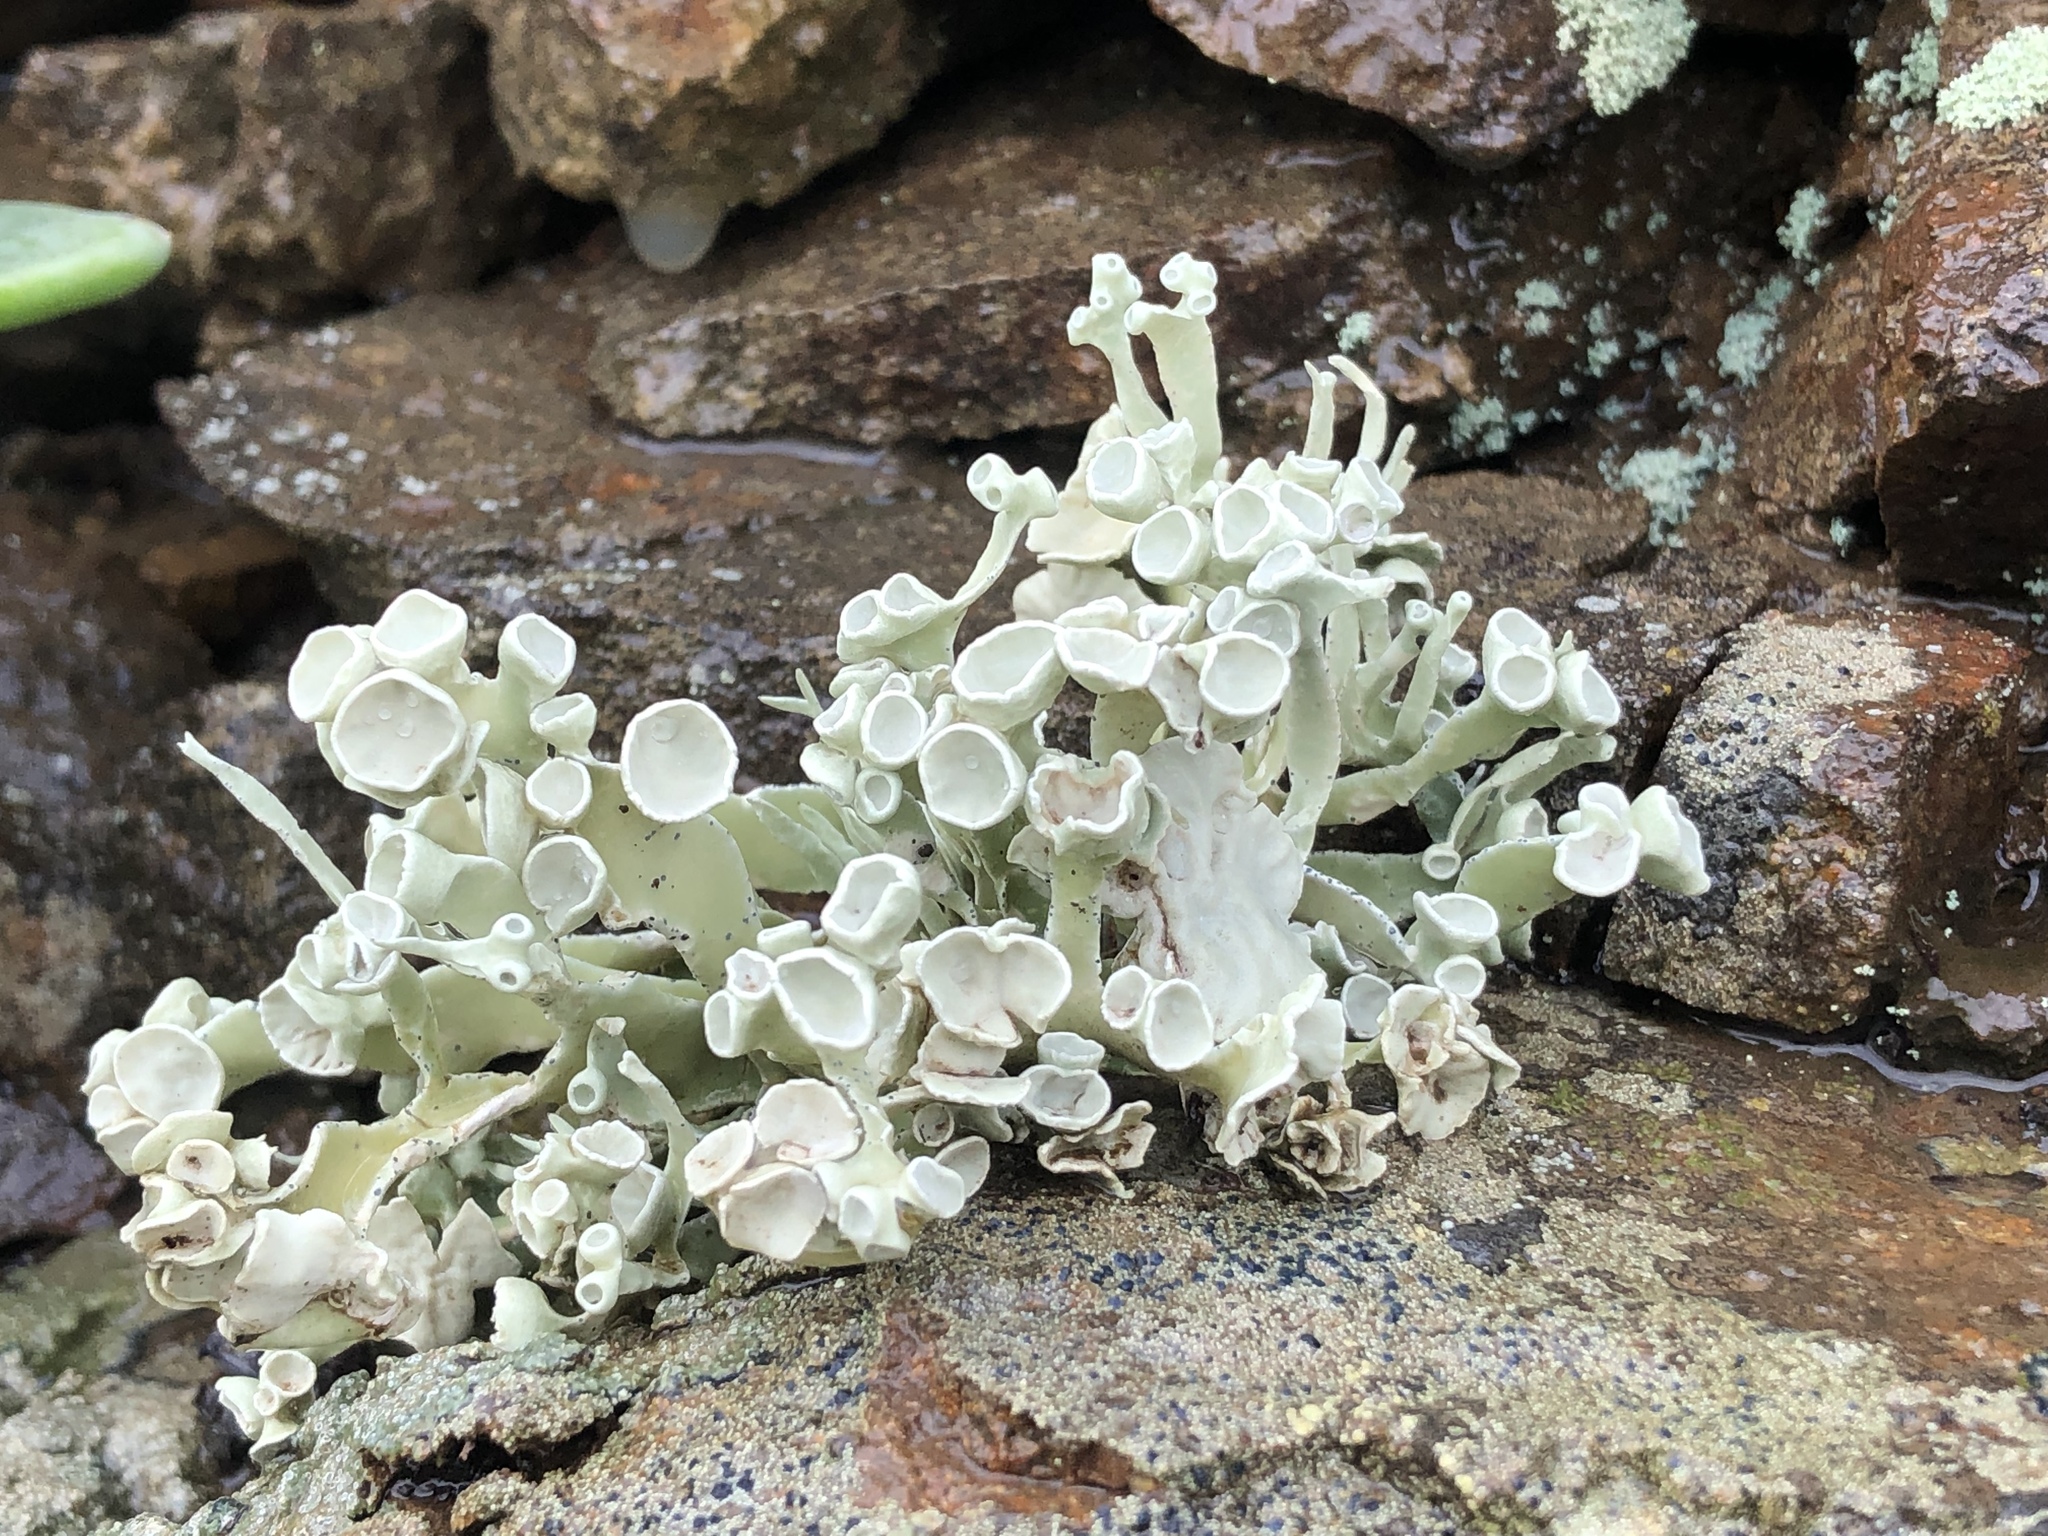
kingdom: Fungi
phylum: Ascomycota
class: Lecanoromycetes
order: Lecanorales
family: Ramalinaceae
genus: Niebla
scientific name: Niebla combeoides
